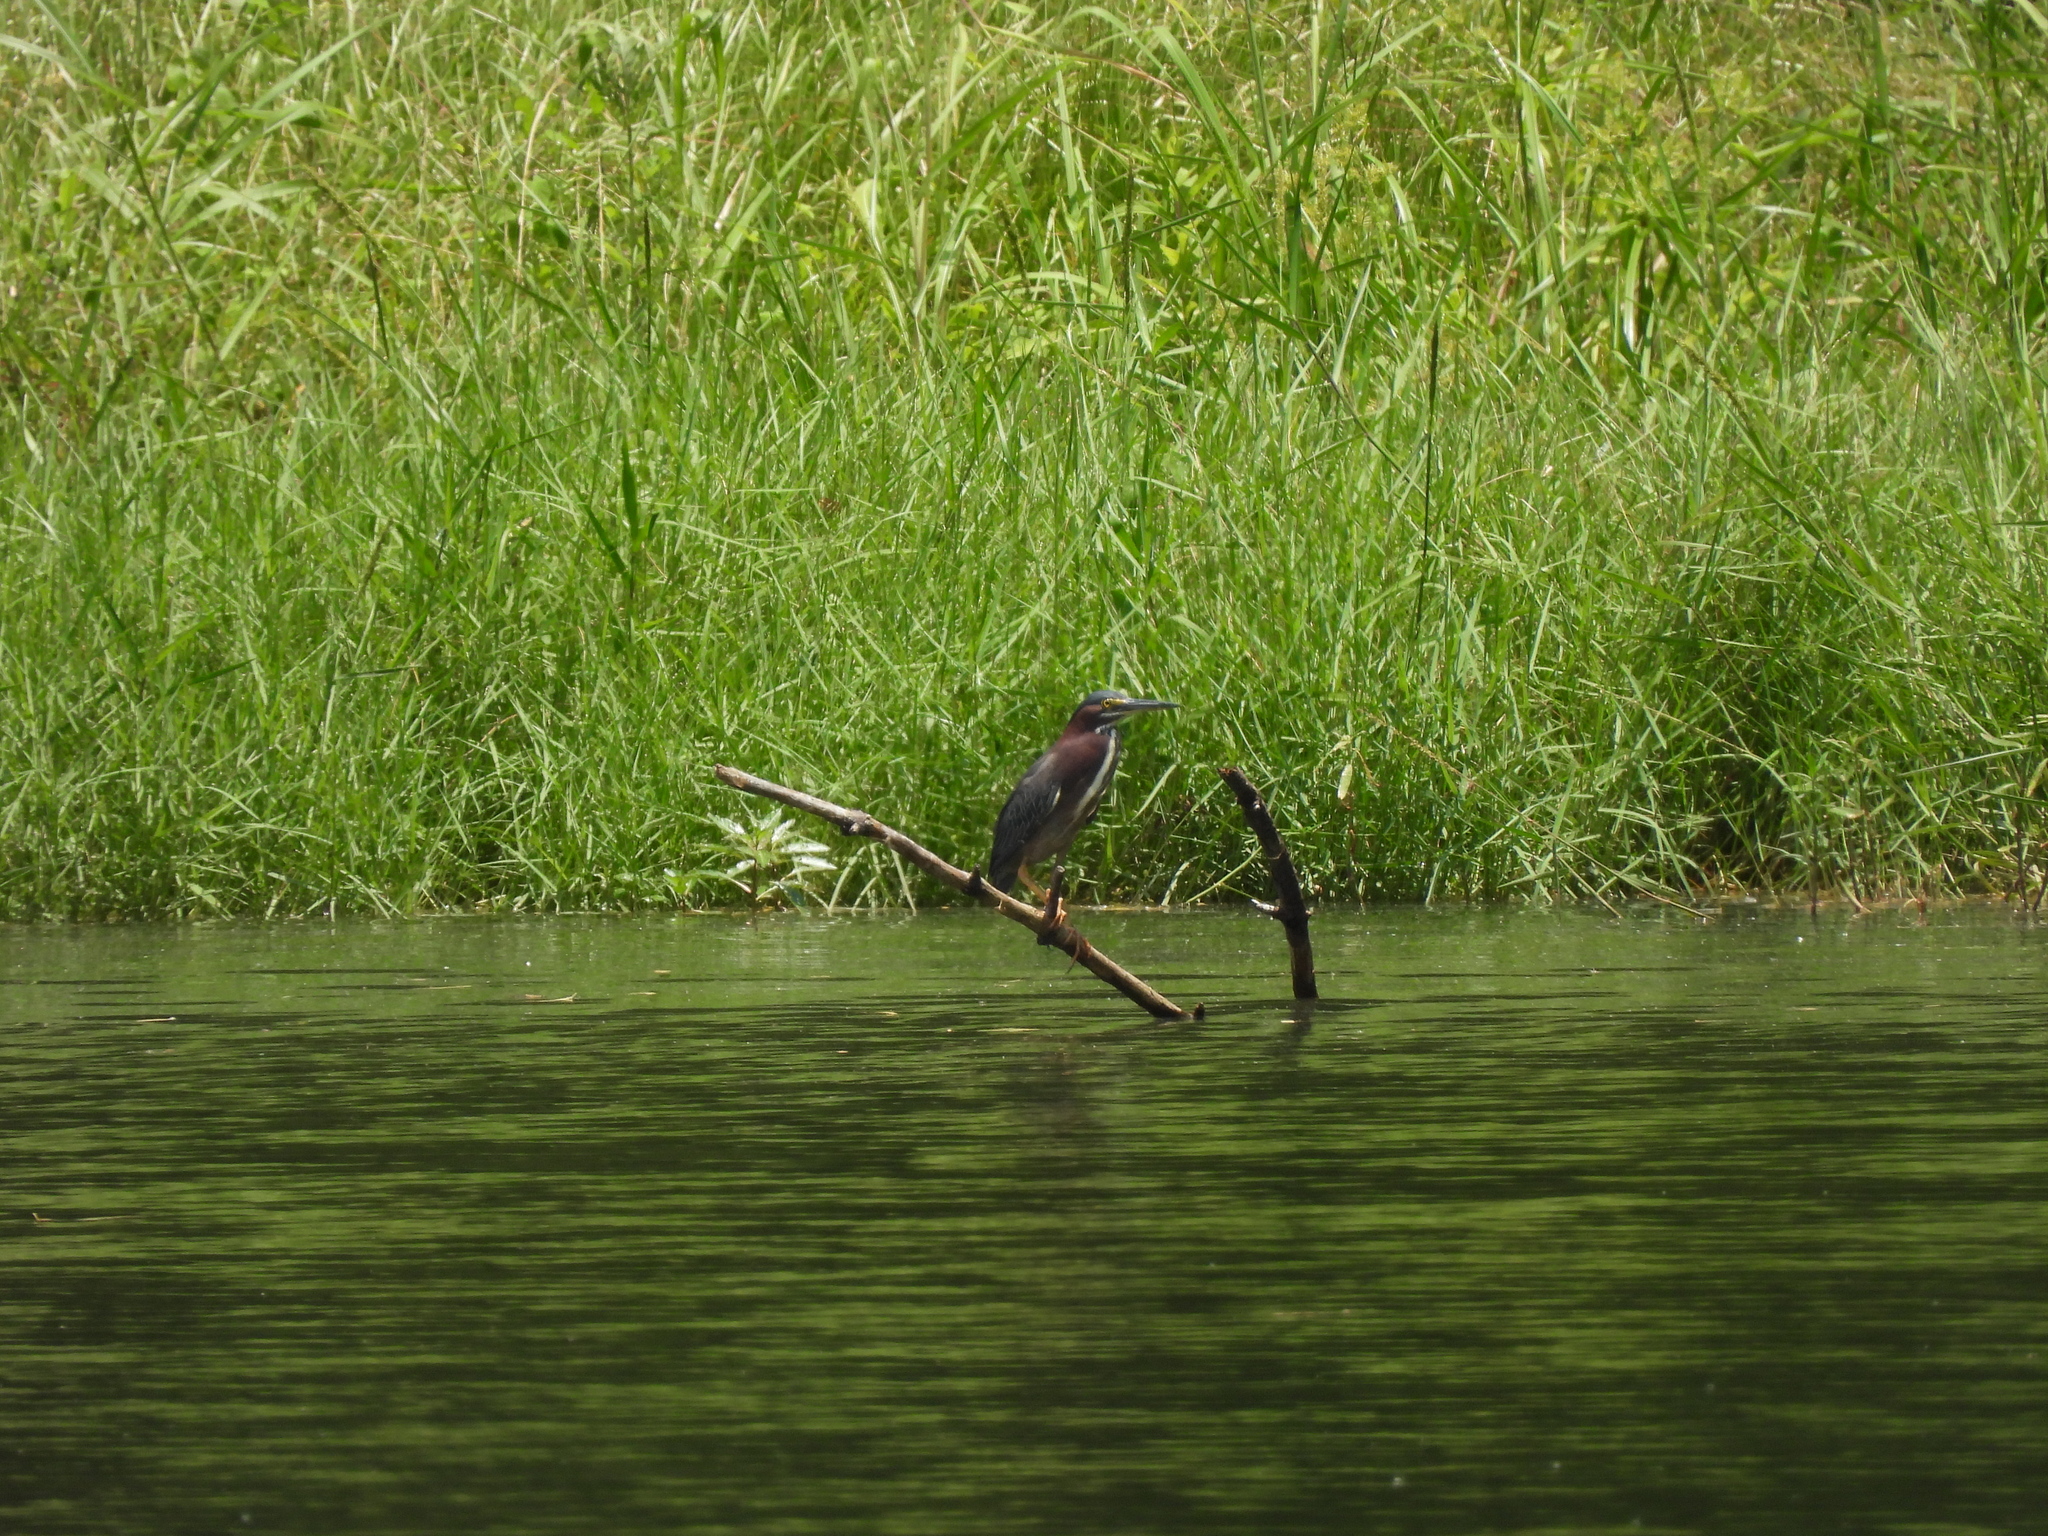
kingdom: Animalia
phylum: Chordata
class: Aves
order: Pelecaniformes
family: Ardeidae
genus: Butorides
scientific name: Butorides virescens
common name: Green heron
